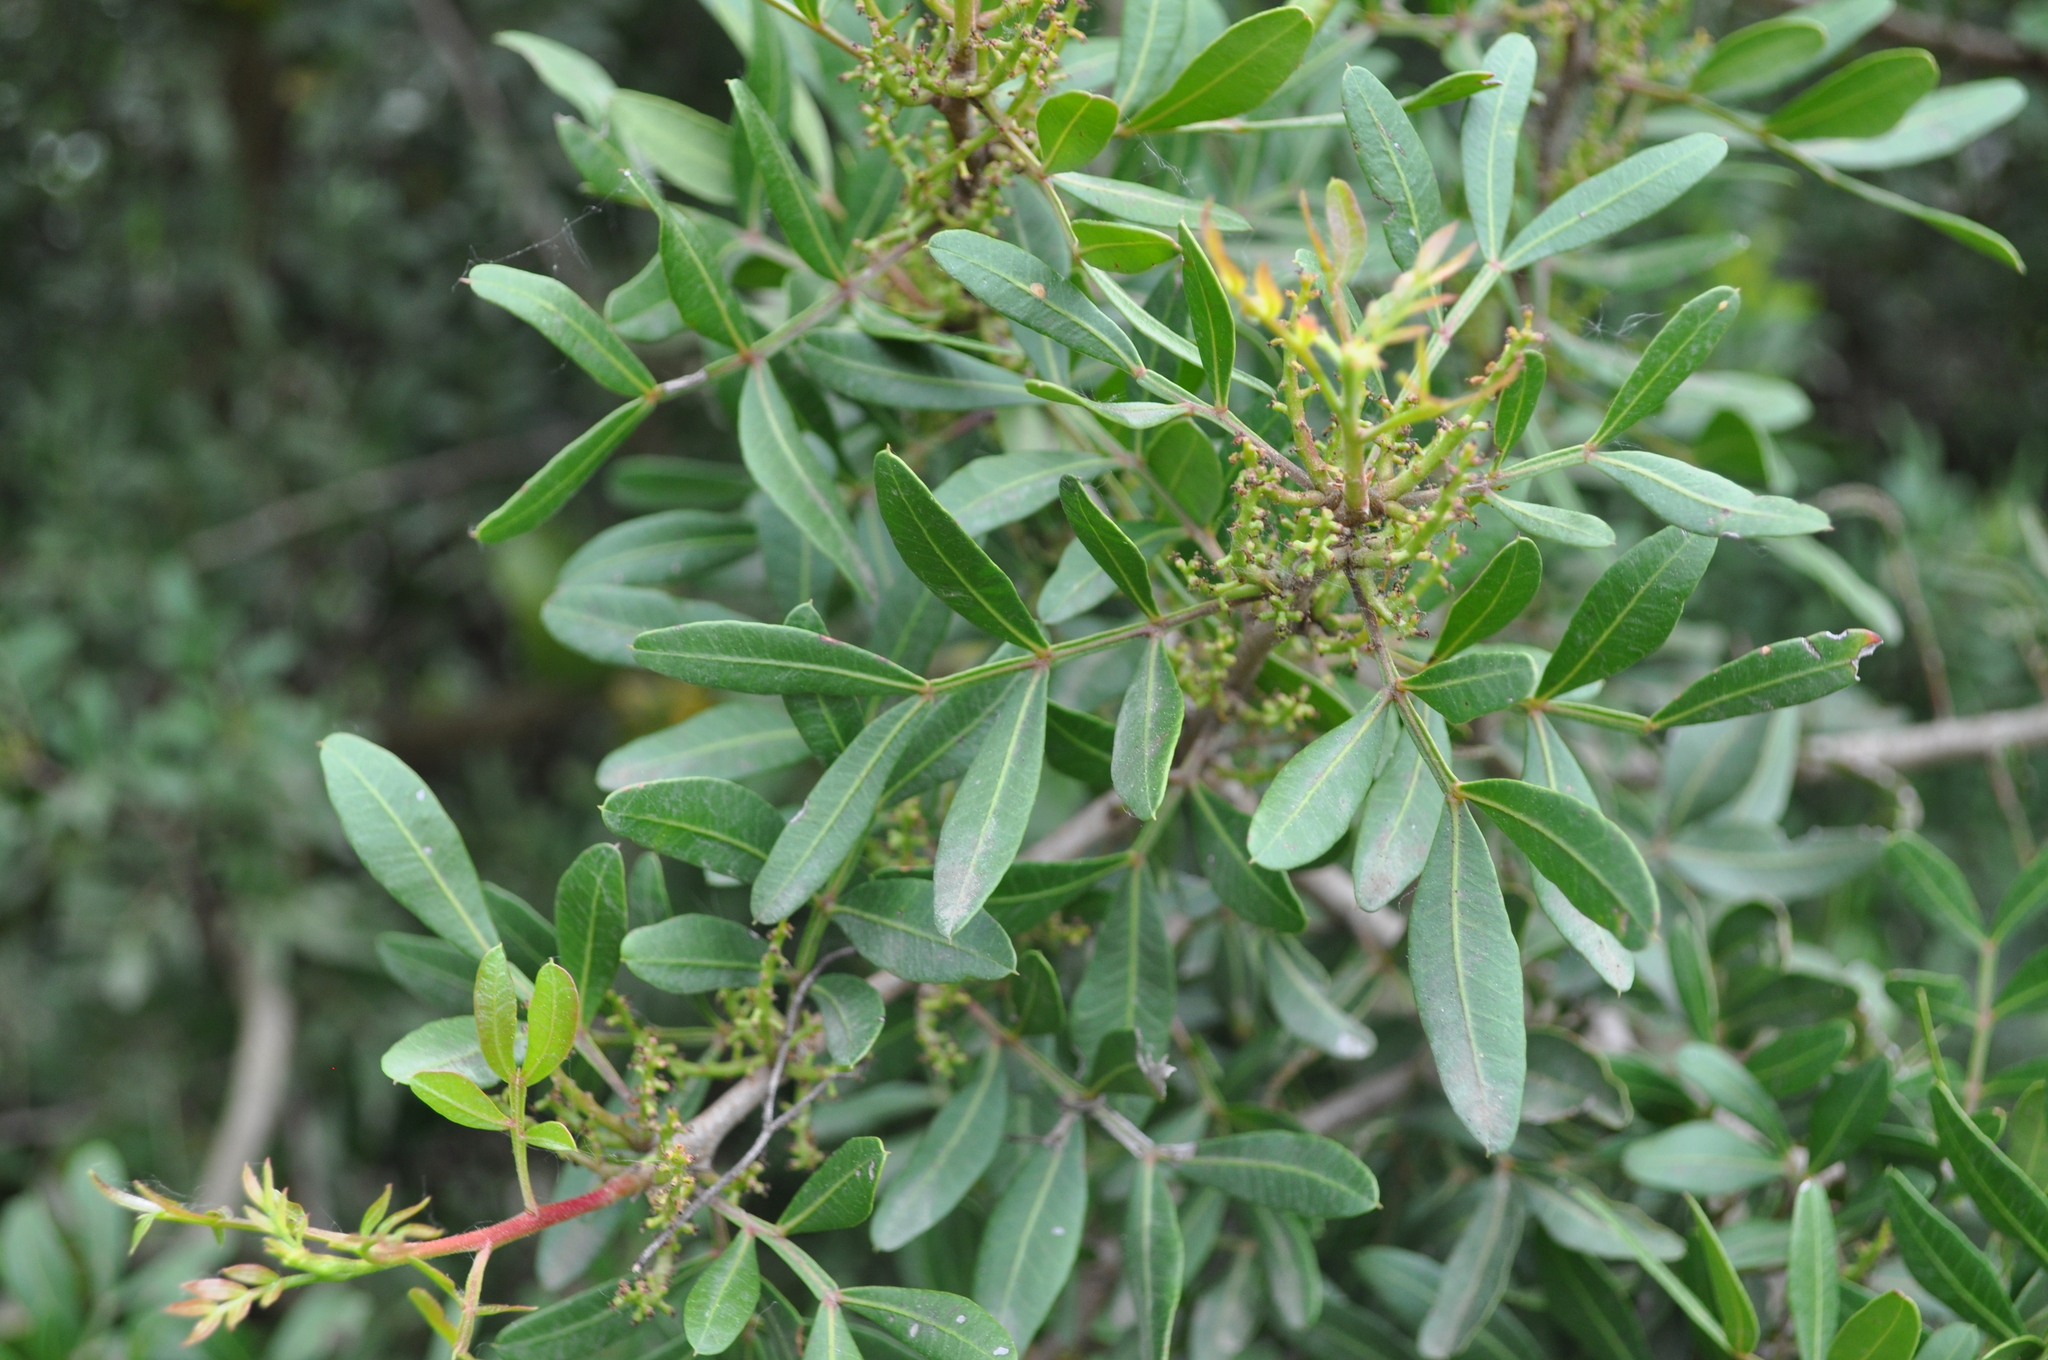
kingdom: Plantae
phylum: Tracheophyta
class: Magnoliopsida
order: Sapindales
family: Anacardiaceae
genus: Pistacia
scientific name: Pistacia lentiscus
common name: Lentisk
